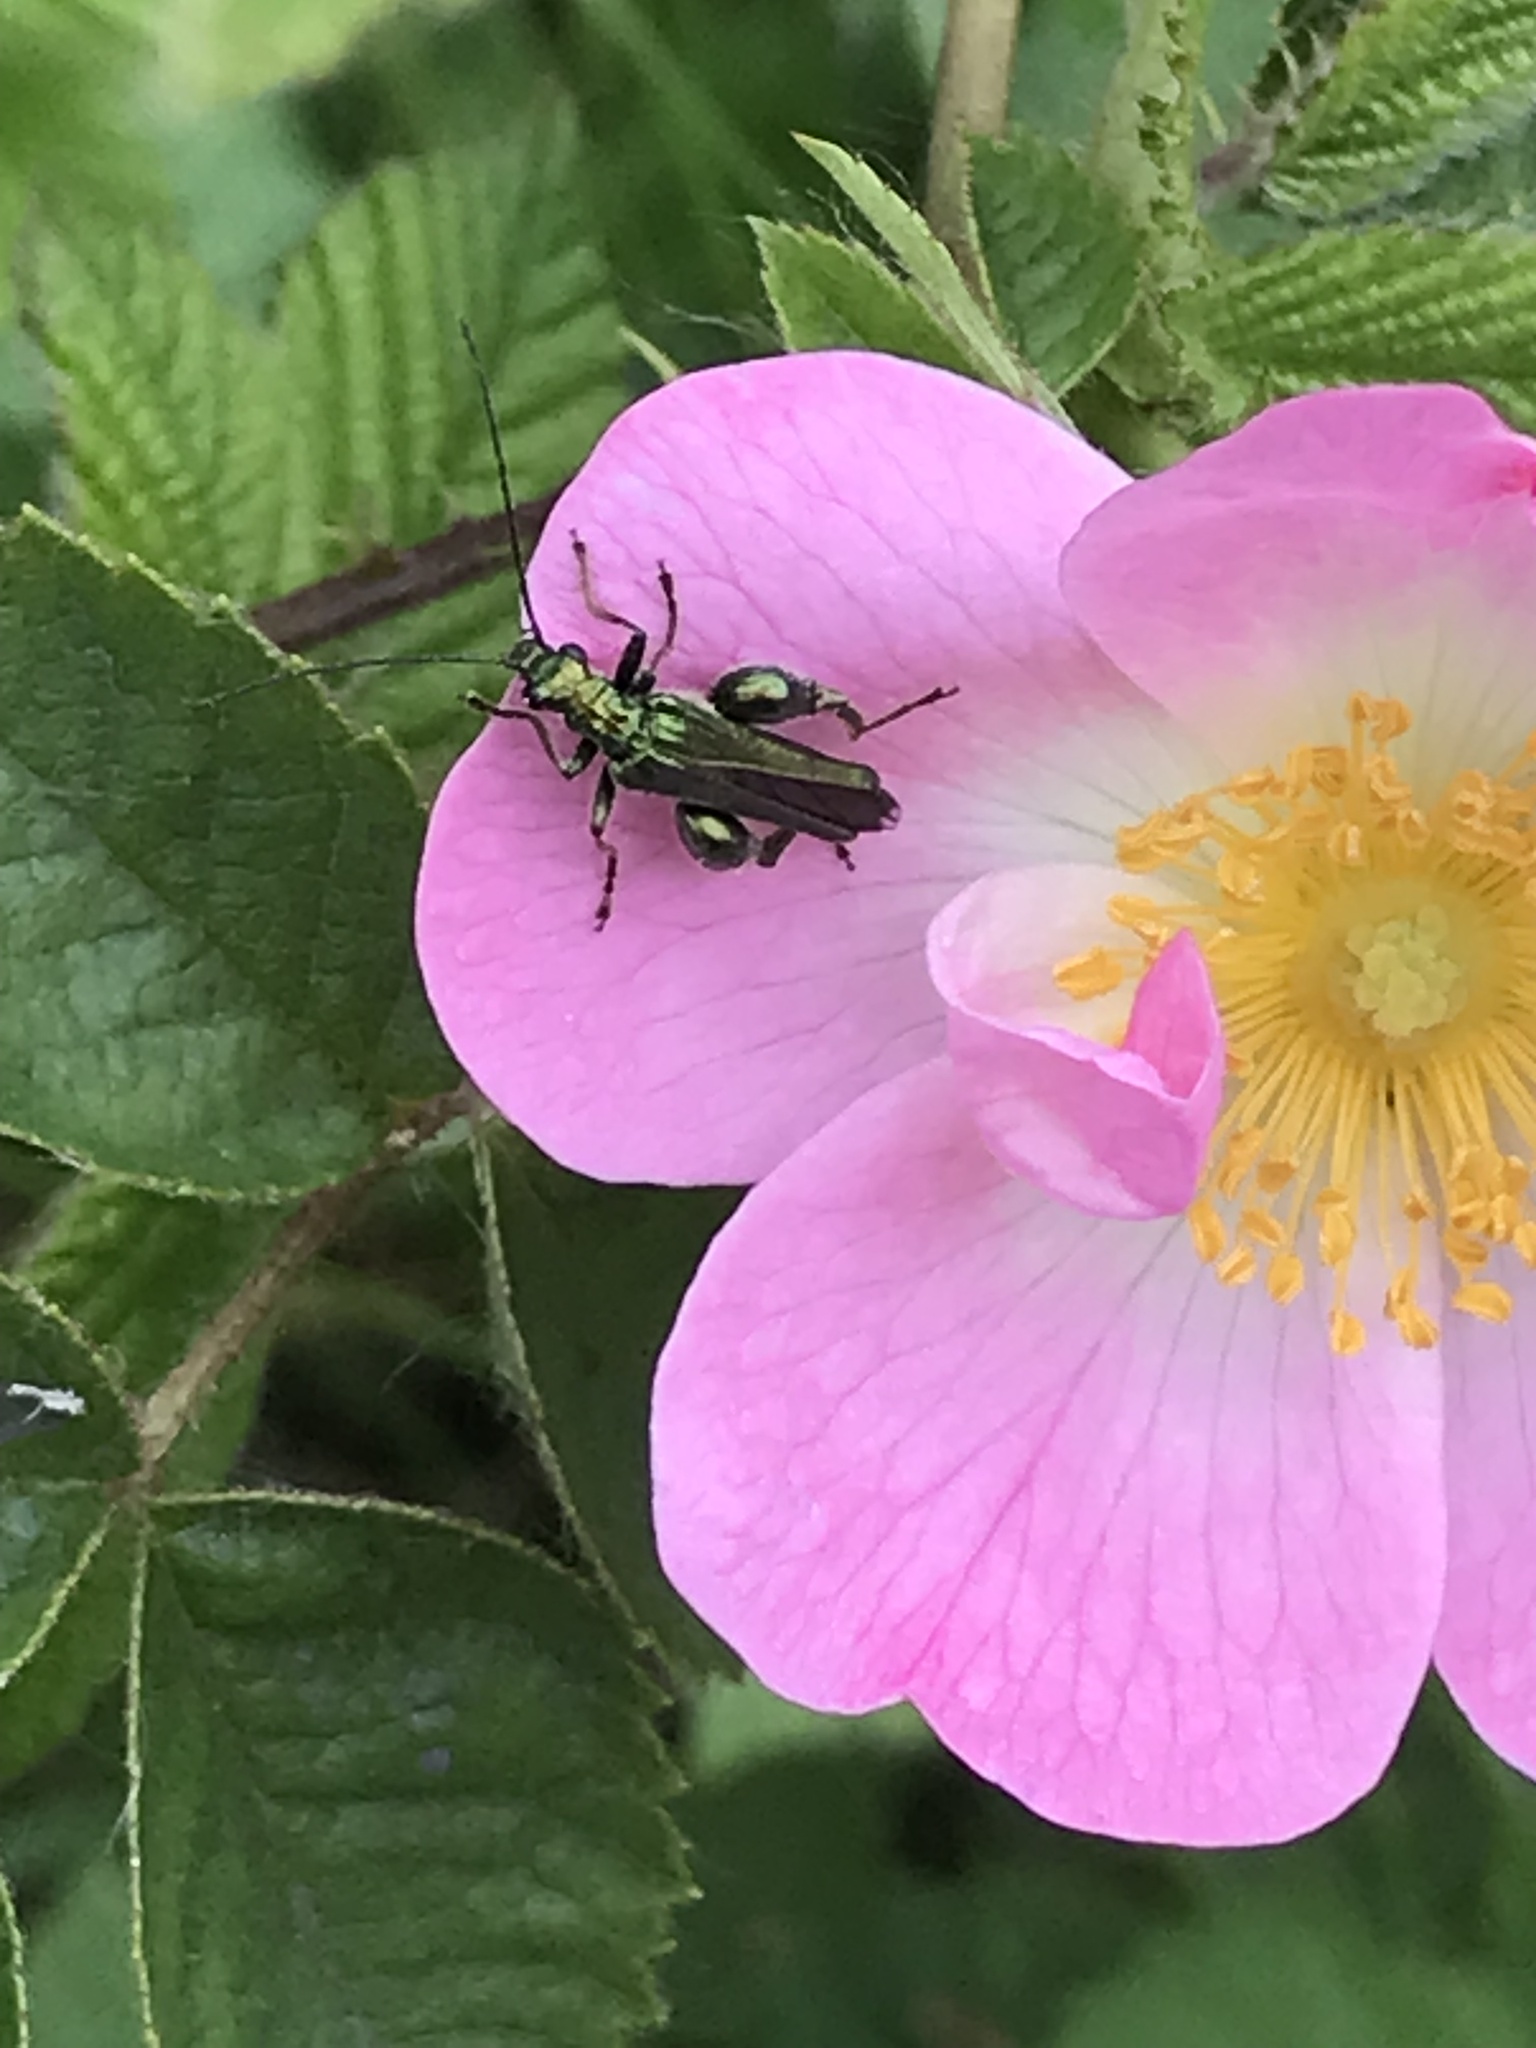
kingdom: Animalia
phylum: Arthropoda
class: Insecta
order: Coleoptera
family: Oedemeridae
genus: Oedemera
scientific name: Oedemera nobilis
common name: Swollen-thighed beetle
